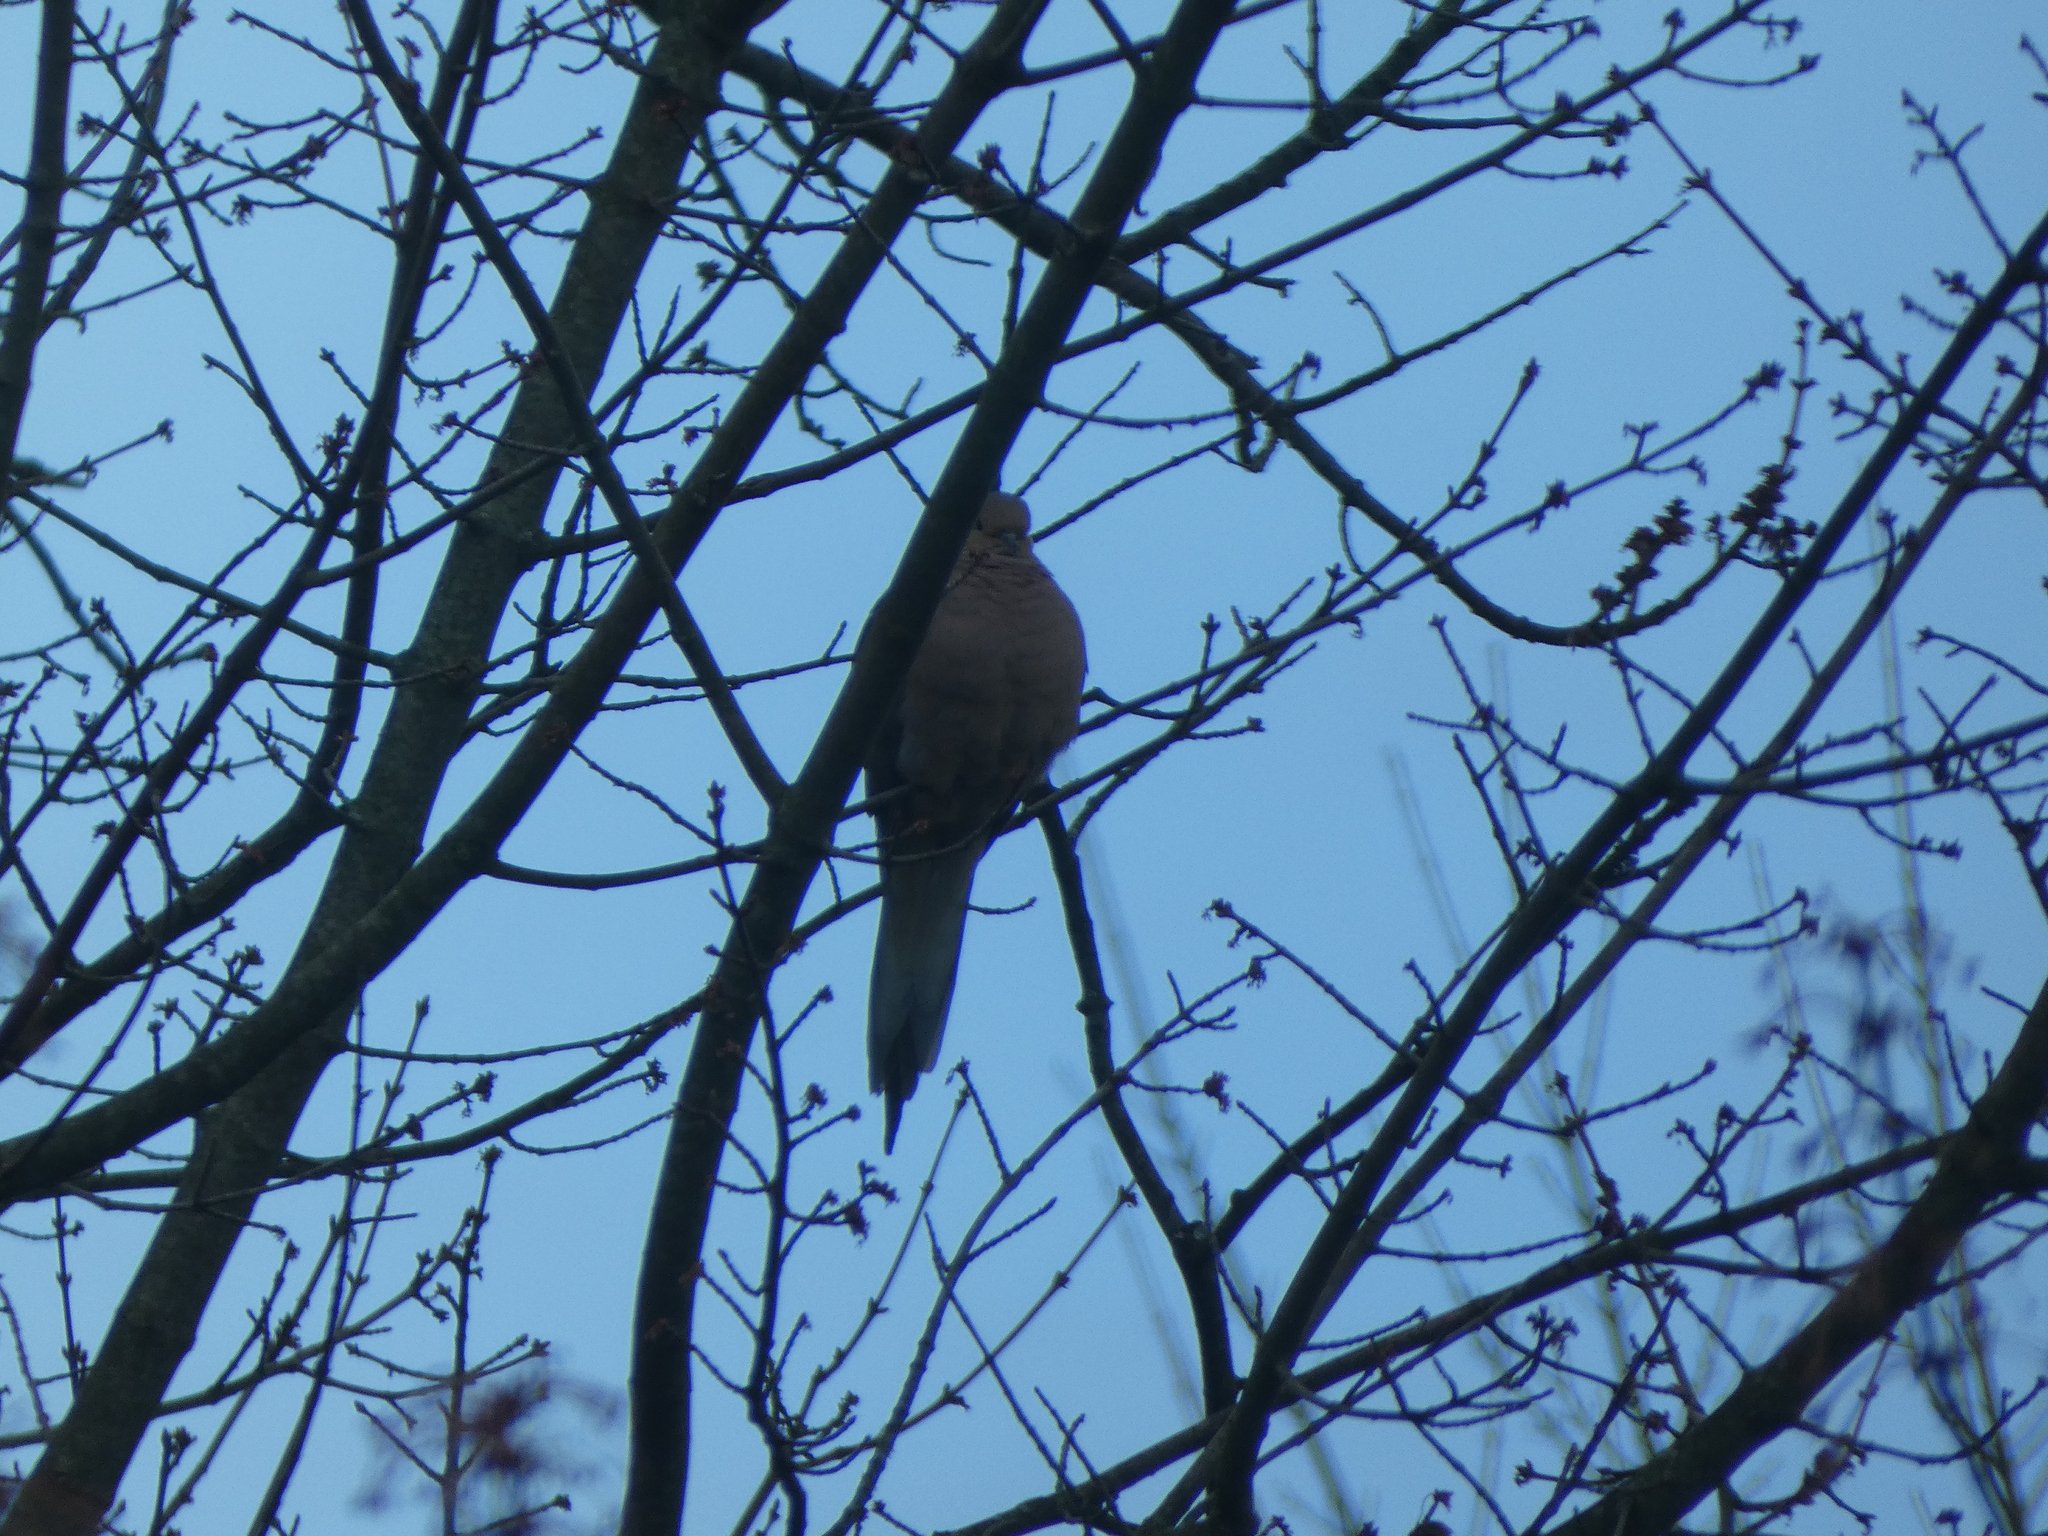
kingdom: Animalia
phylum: Chordata
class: Aves
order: Columbiformes
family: Columbidae
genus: Zenaida
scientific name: Zenaida macroura
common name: Mourning dove
